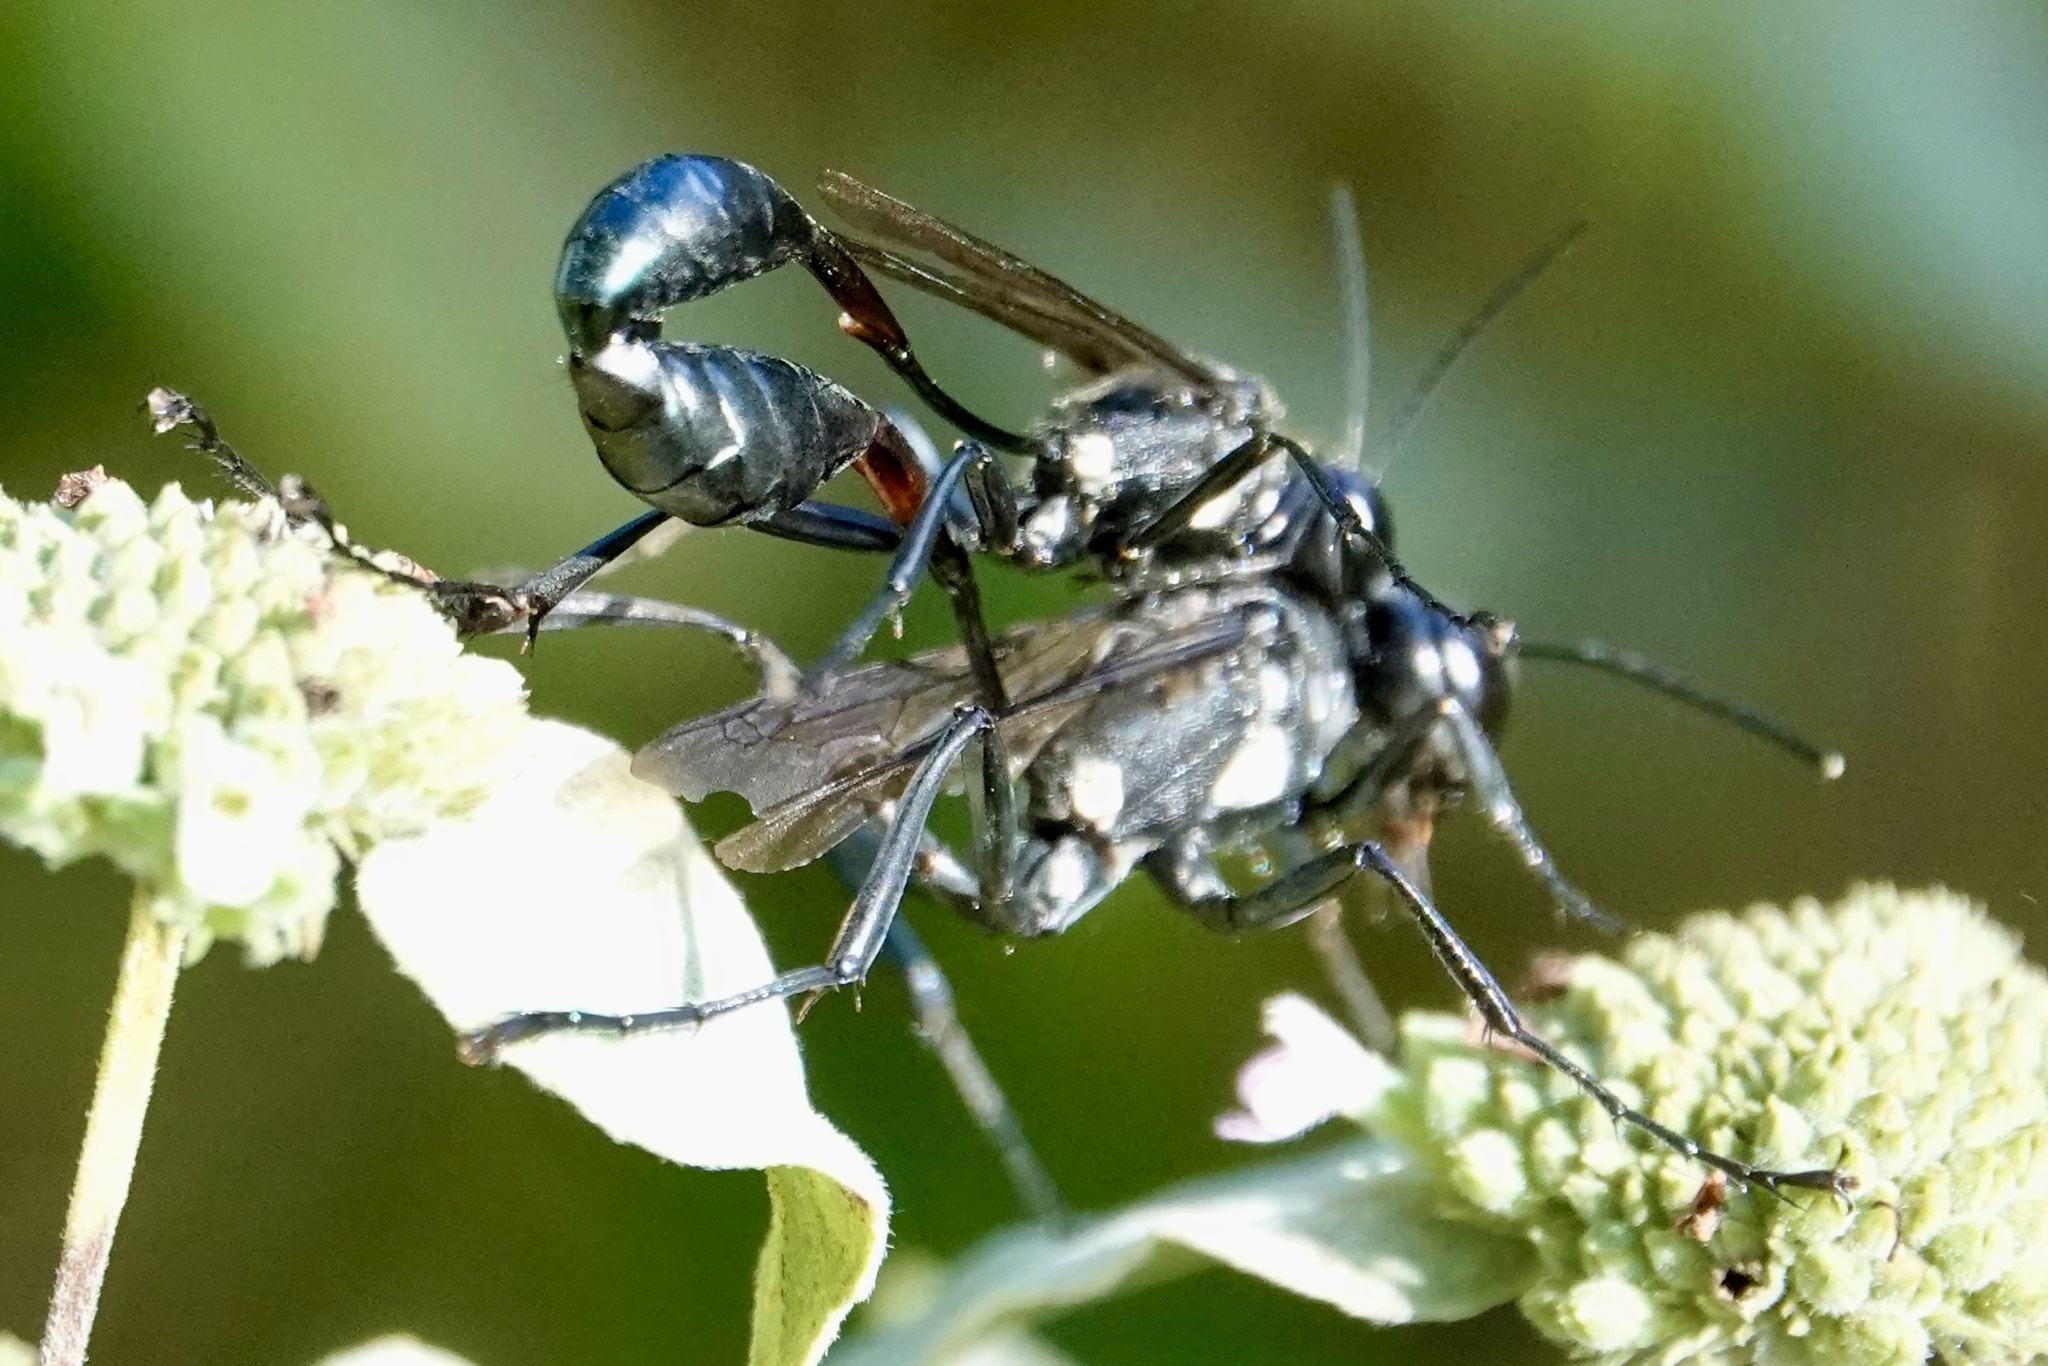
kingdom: Animalia
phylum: Arthropoda
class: Insecta
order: Hymenoptera
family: Sphecidae
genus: Eremnophila
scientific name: Eremnophila aureonotata
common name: Gold-marked thread-waisted wasp
